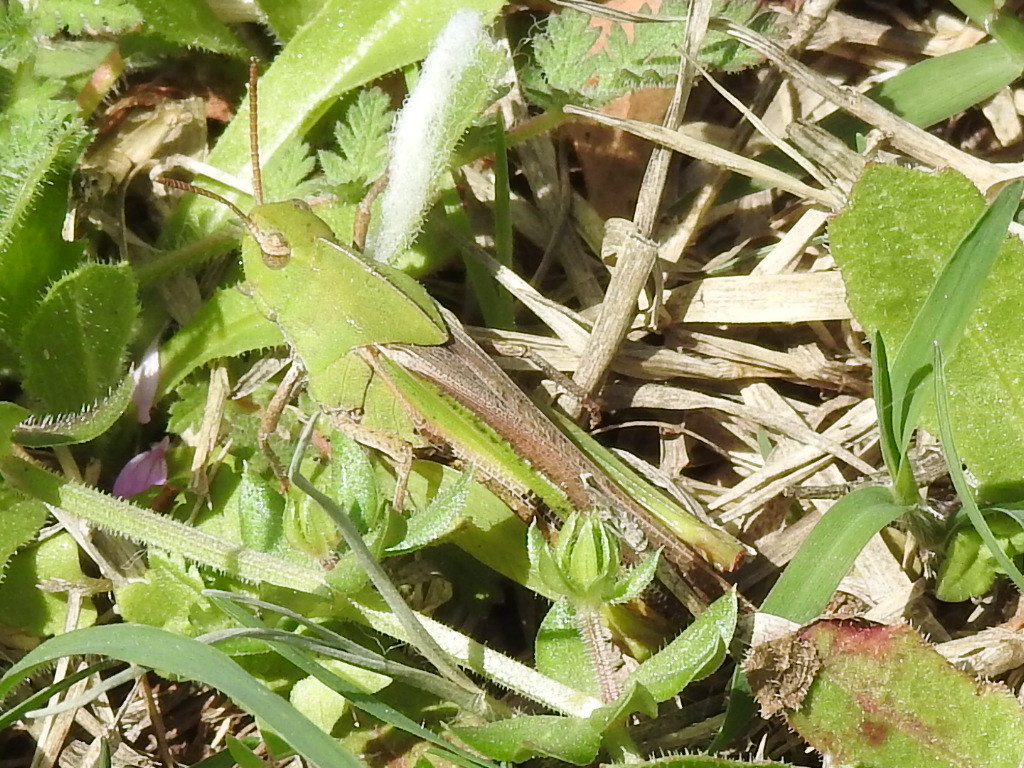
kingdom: Animalia
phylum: Arthropoda
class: Insecta
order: Orthoptera
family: Acrididae
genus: Chortophaga
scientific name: Chortophaga viridifasciata
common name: Green-striped grasshopper
